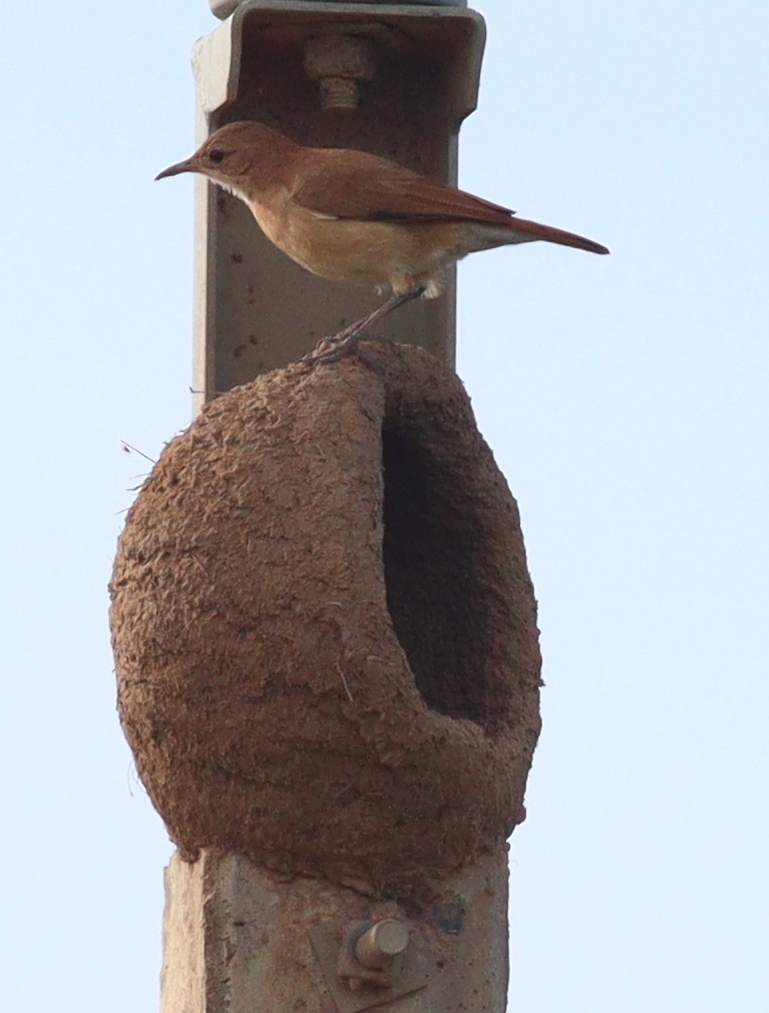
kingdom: Animalia
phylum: Chordata
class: Aves
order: Passeriformes
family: Furnariidae
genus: Furnarius
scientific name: Furnarius rufus
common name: Rufous hornero
